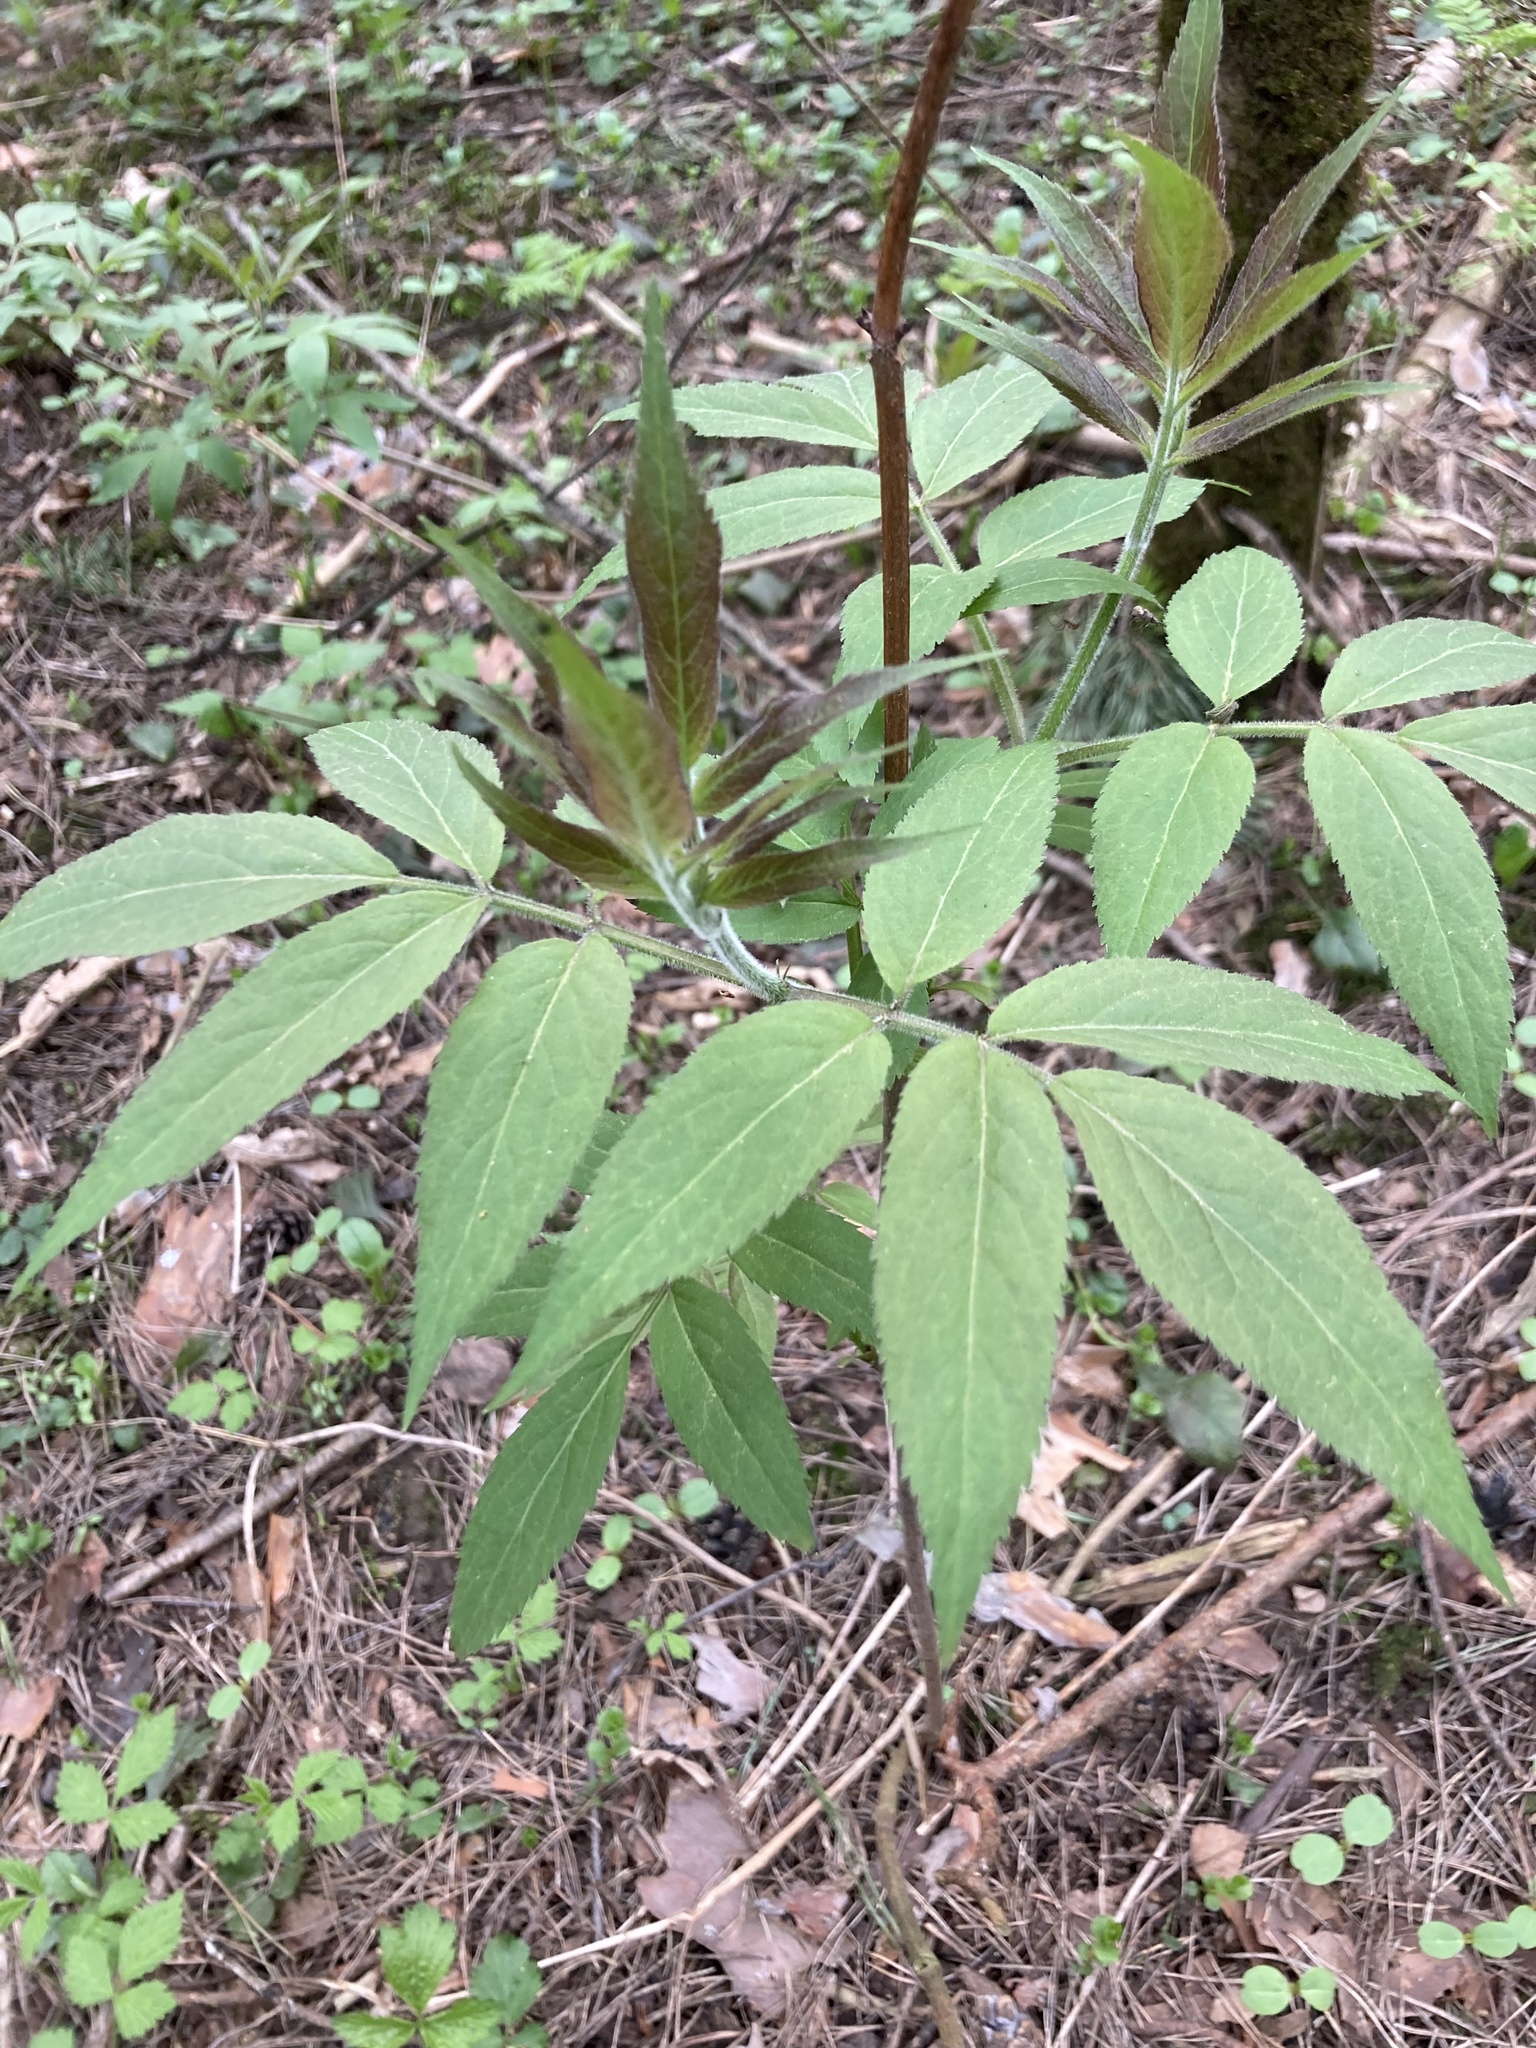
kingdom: Plantae
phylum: Tracheophyta
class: Magnoliopsida
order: Dipsacales
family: Viburnaceae
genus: Sambucus
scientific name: Sambucus racemosa
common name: Red-berried elder
